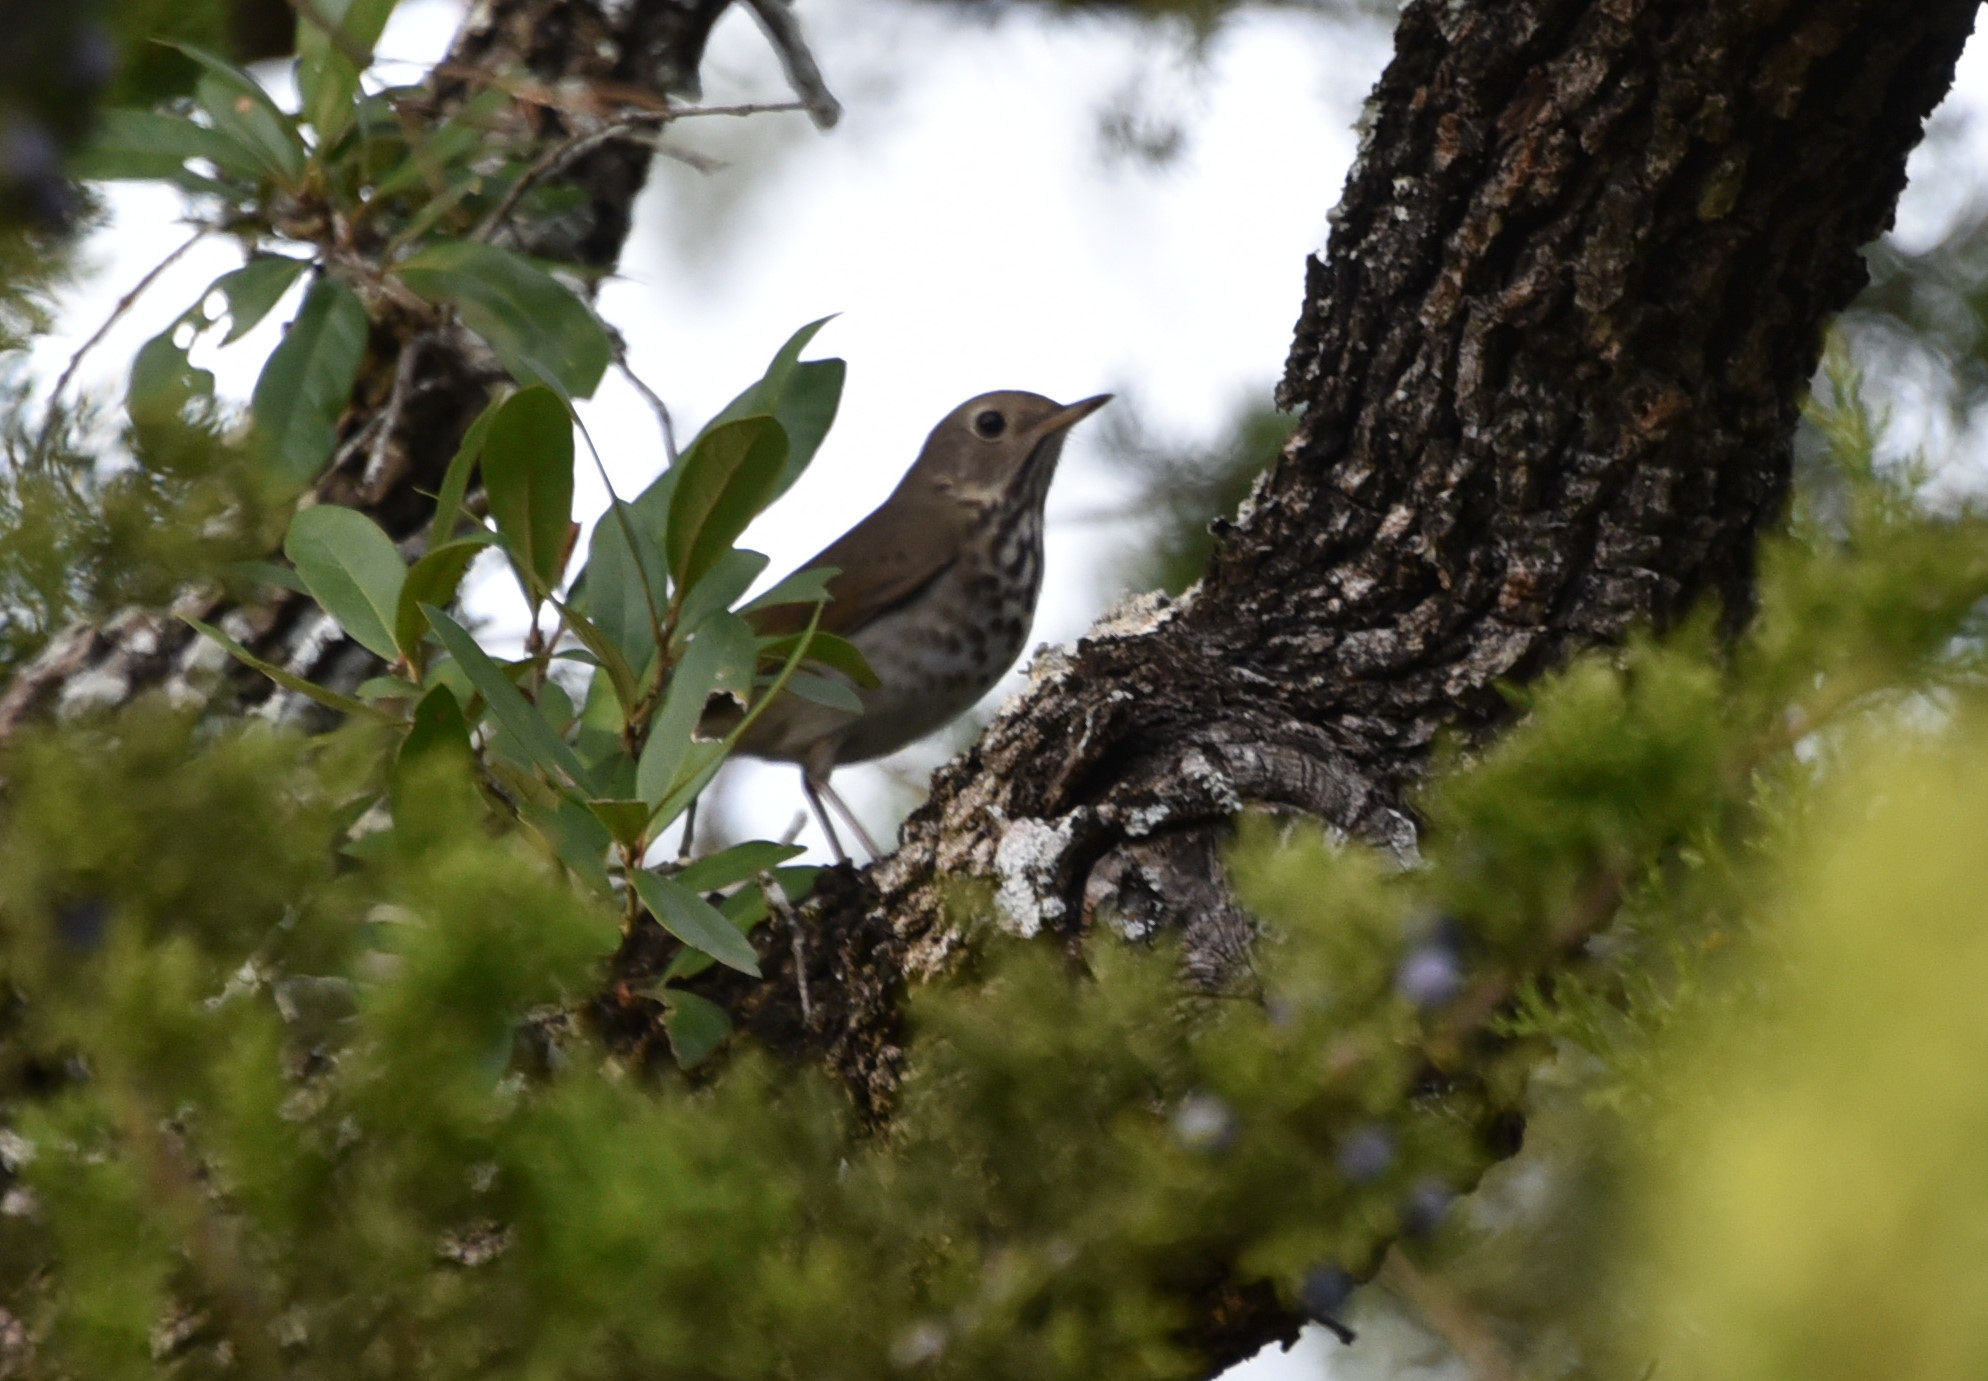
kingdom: Animalia
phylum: Chordata
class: Aves
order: Passeriformes
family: Turdidae
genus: Catharus
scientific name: Catharus guttatus
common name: Hermit thrush
